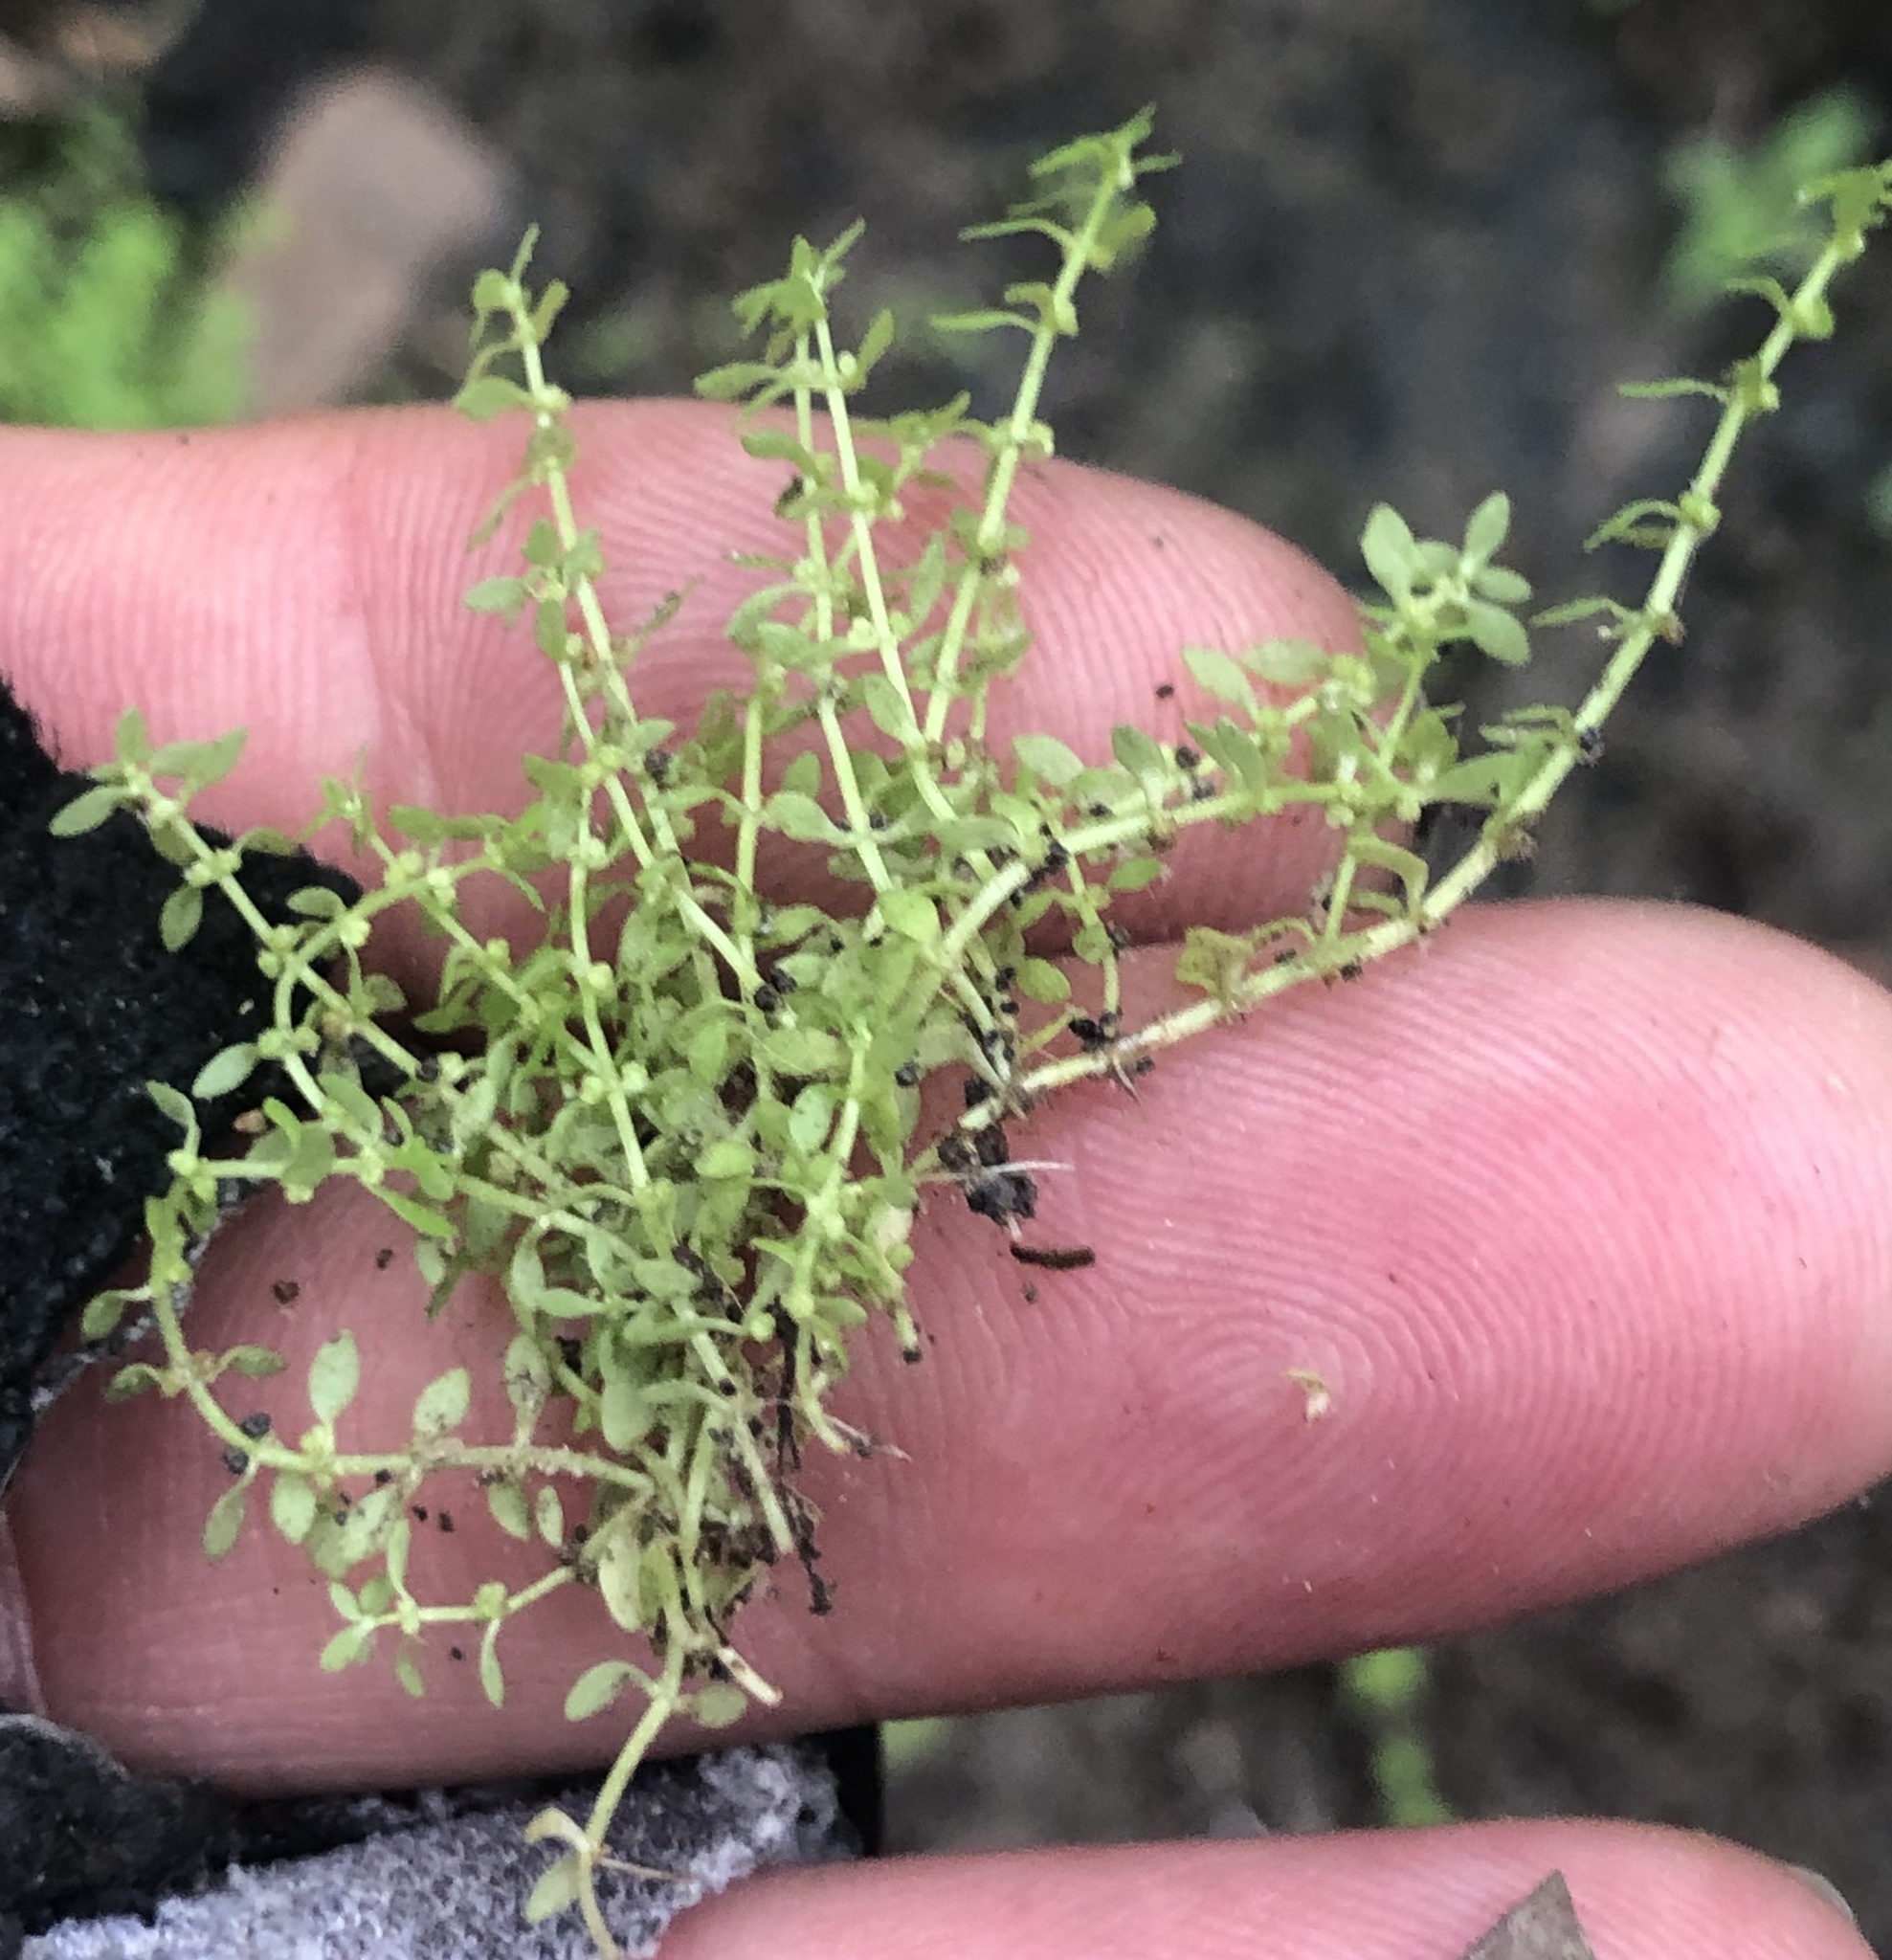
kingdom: Plantae
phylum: Tracheophyta
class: Magnoliopsida
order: Lamiales
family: Plantaginaceae
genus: Callitriche
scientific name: Callitriche peploides
